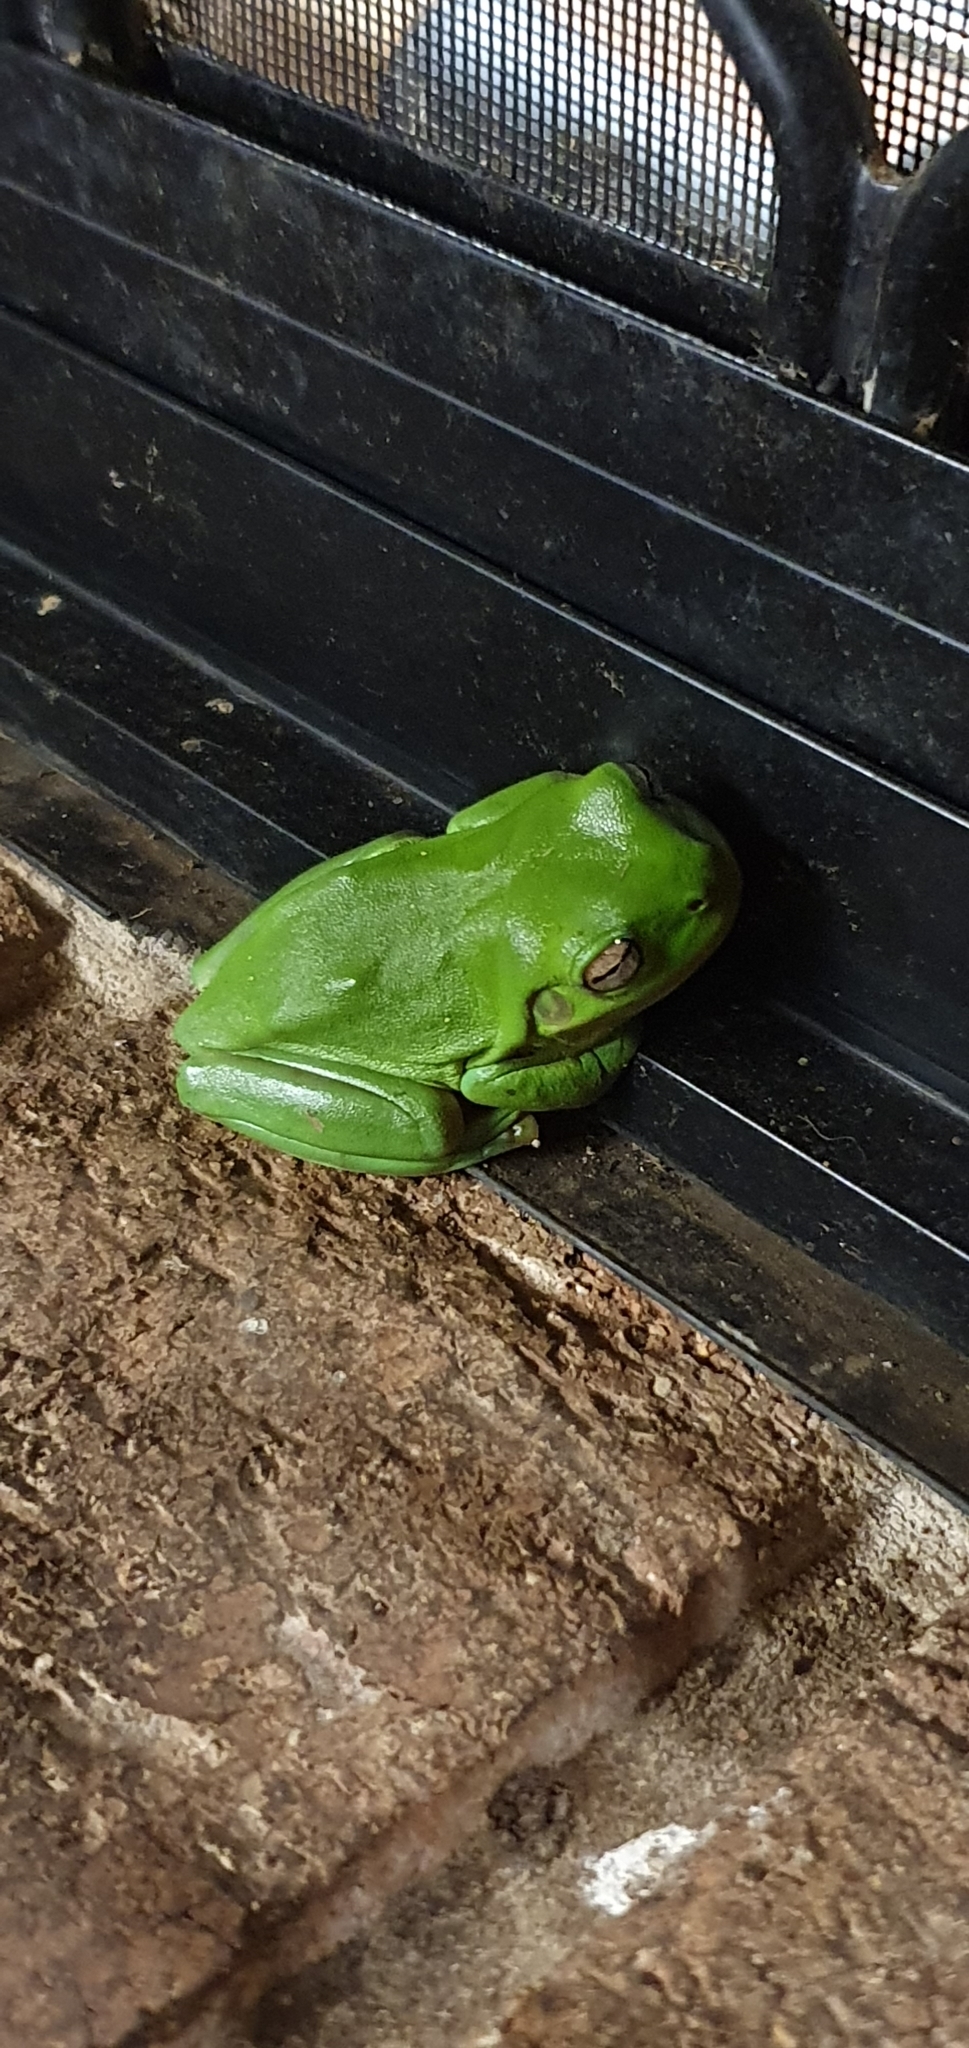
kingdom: Animalia
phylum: Chordata
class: Amphibia
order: Anura
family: Pelodryadidae
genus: Ranoidea
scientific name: Ranoidea caerulea
